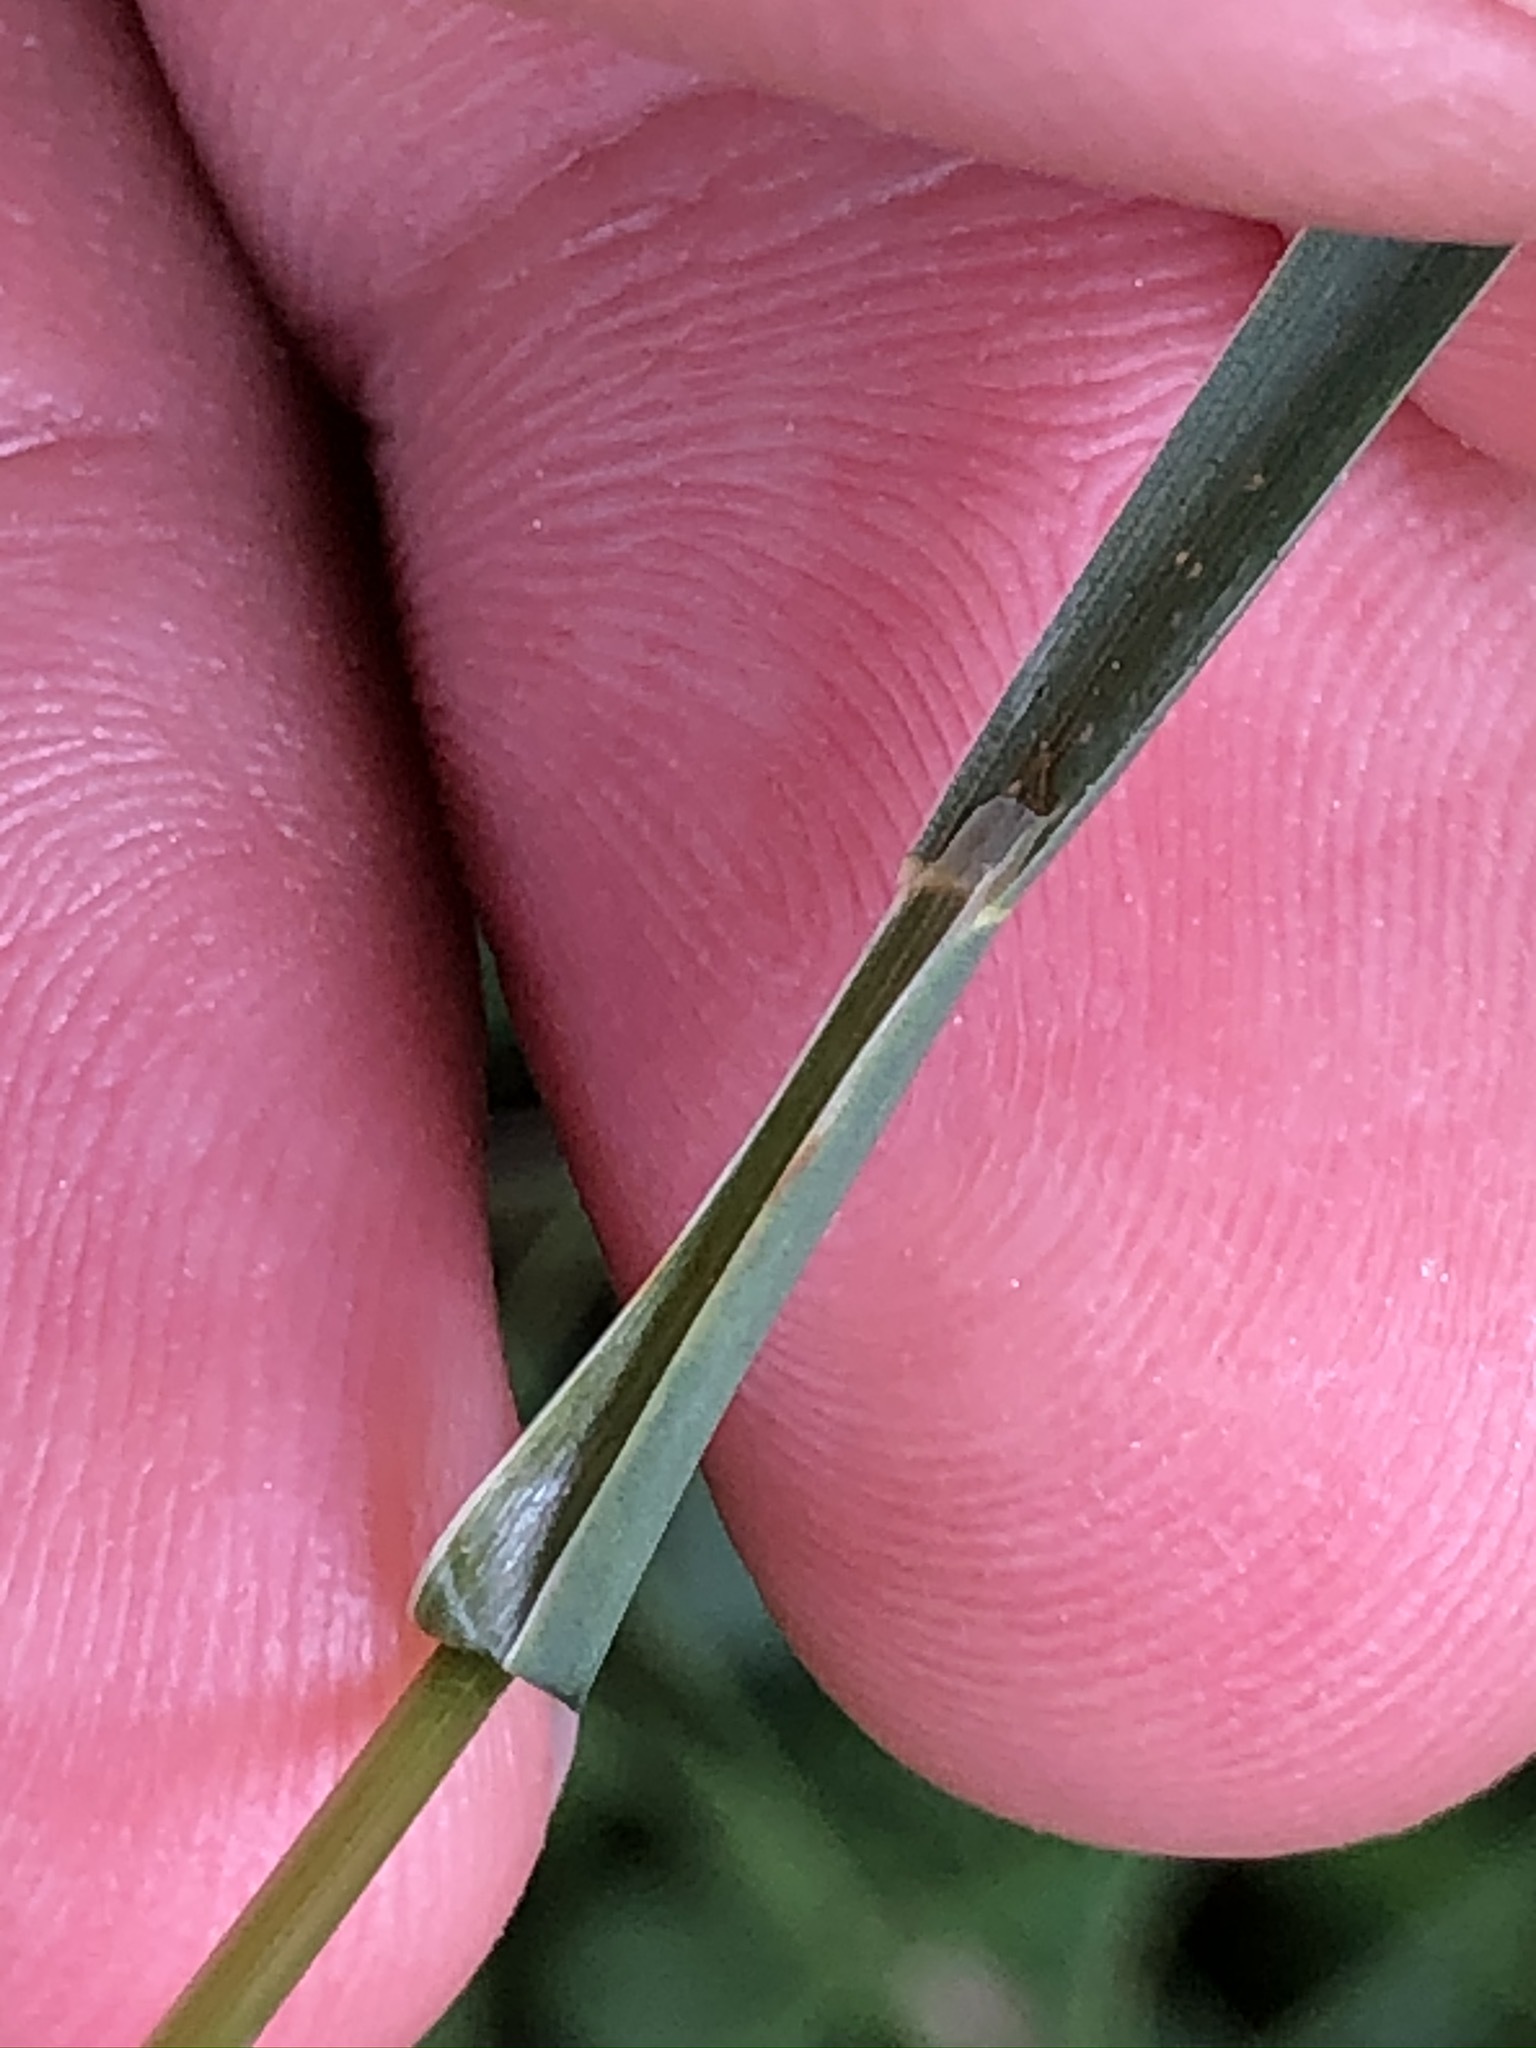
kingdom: Plantae
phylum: Tracheophyta
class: Liliopsida
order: Poales
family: Poaceae
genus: Poa
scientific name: Poa pratensis
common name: Kentucky bluegrass
